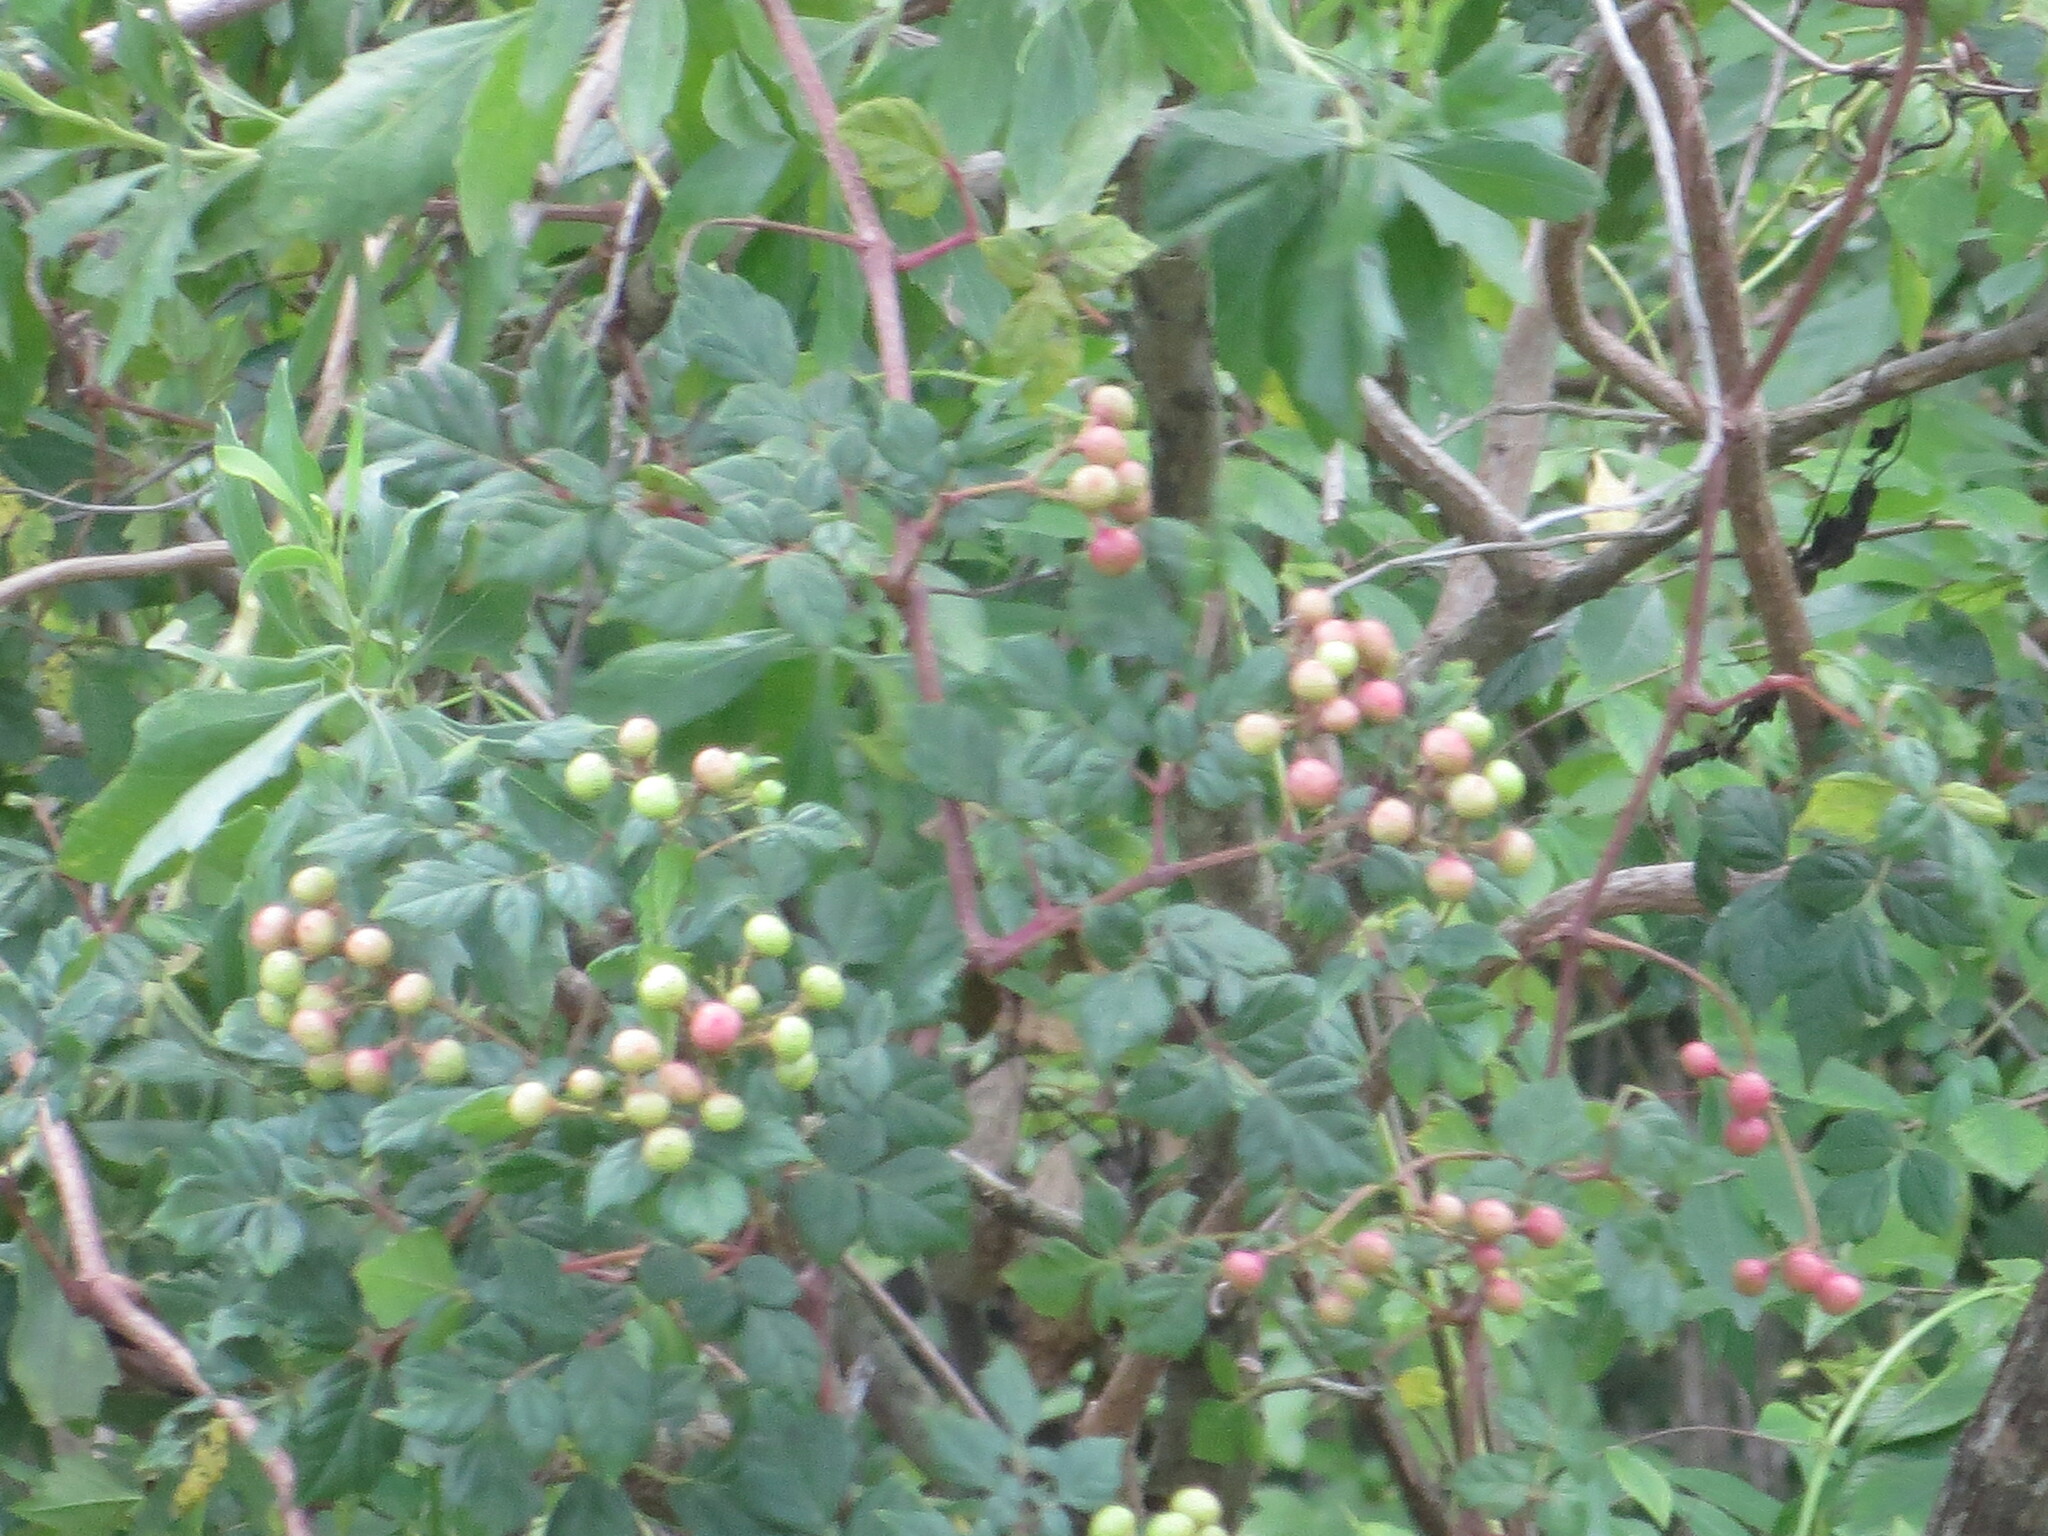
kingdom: Plantae
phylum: Tracheophyta
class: Magnoliopsida
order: Vitales
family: Vitaceae
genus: Nekemias
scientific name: Nekemias arborea
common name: Peppervine
